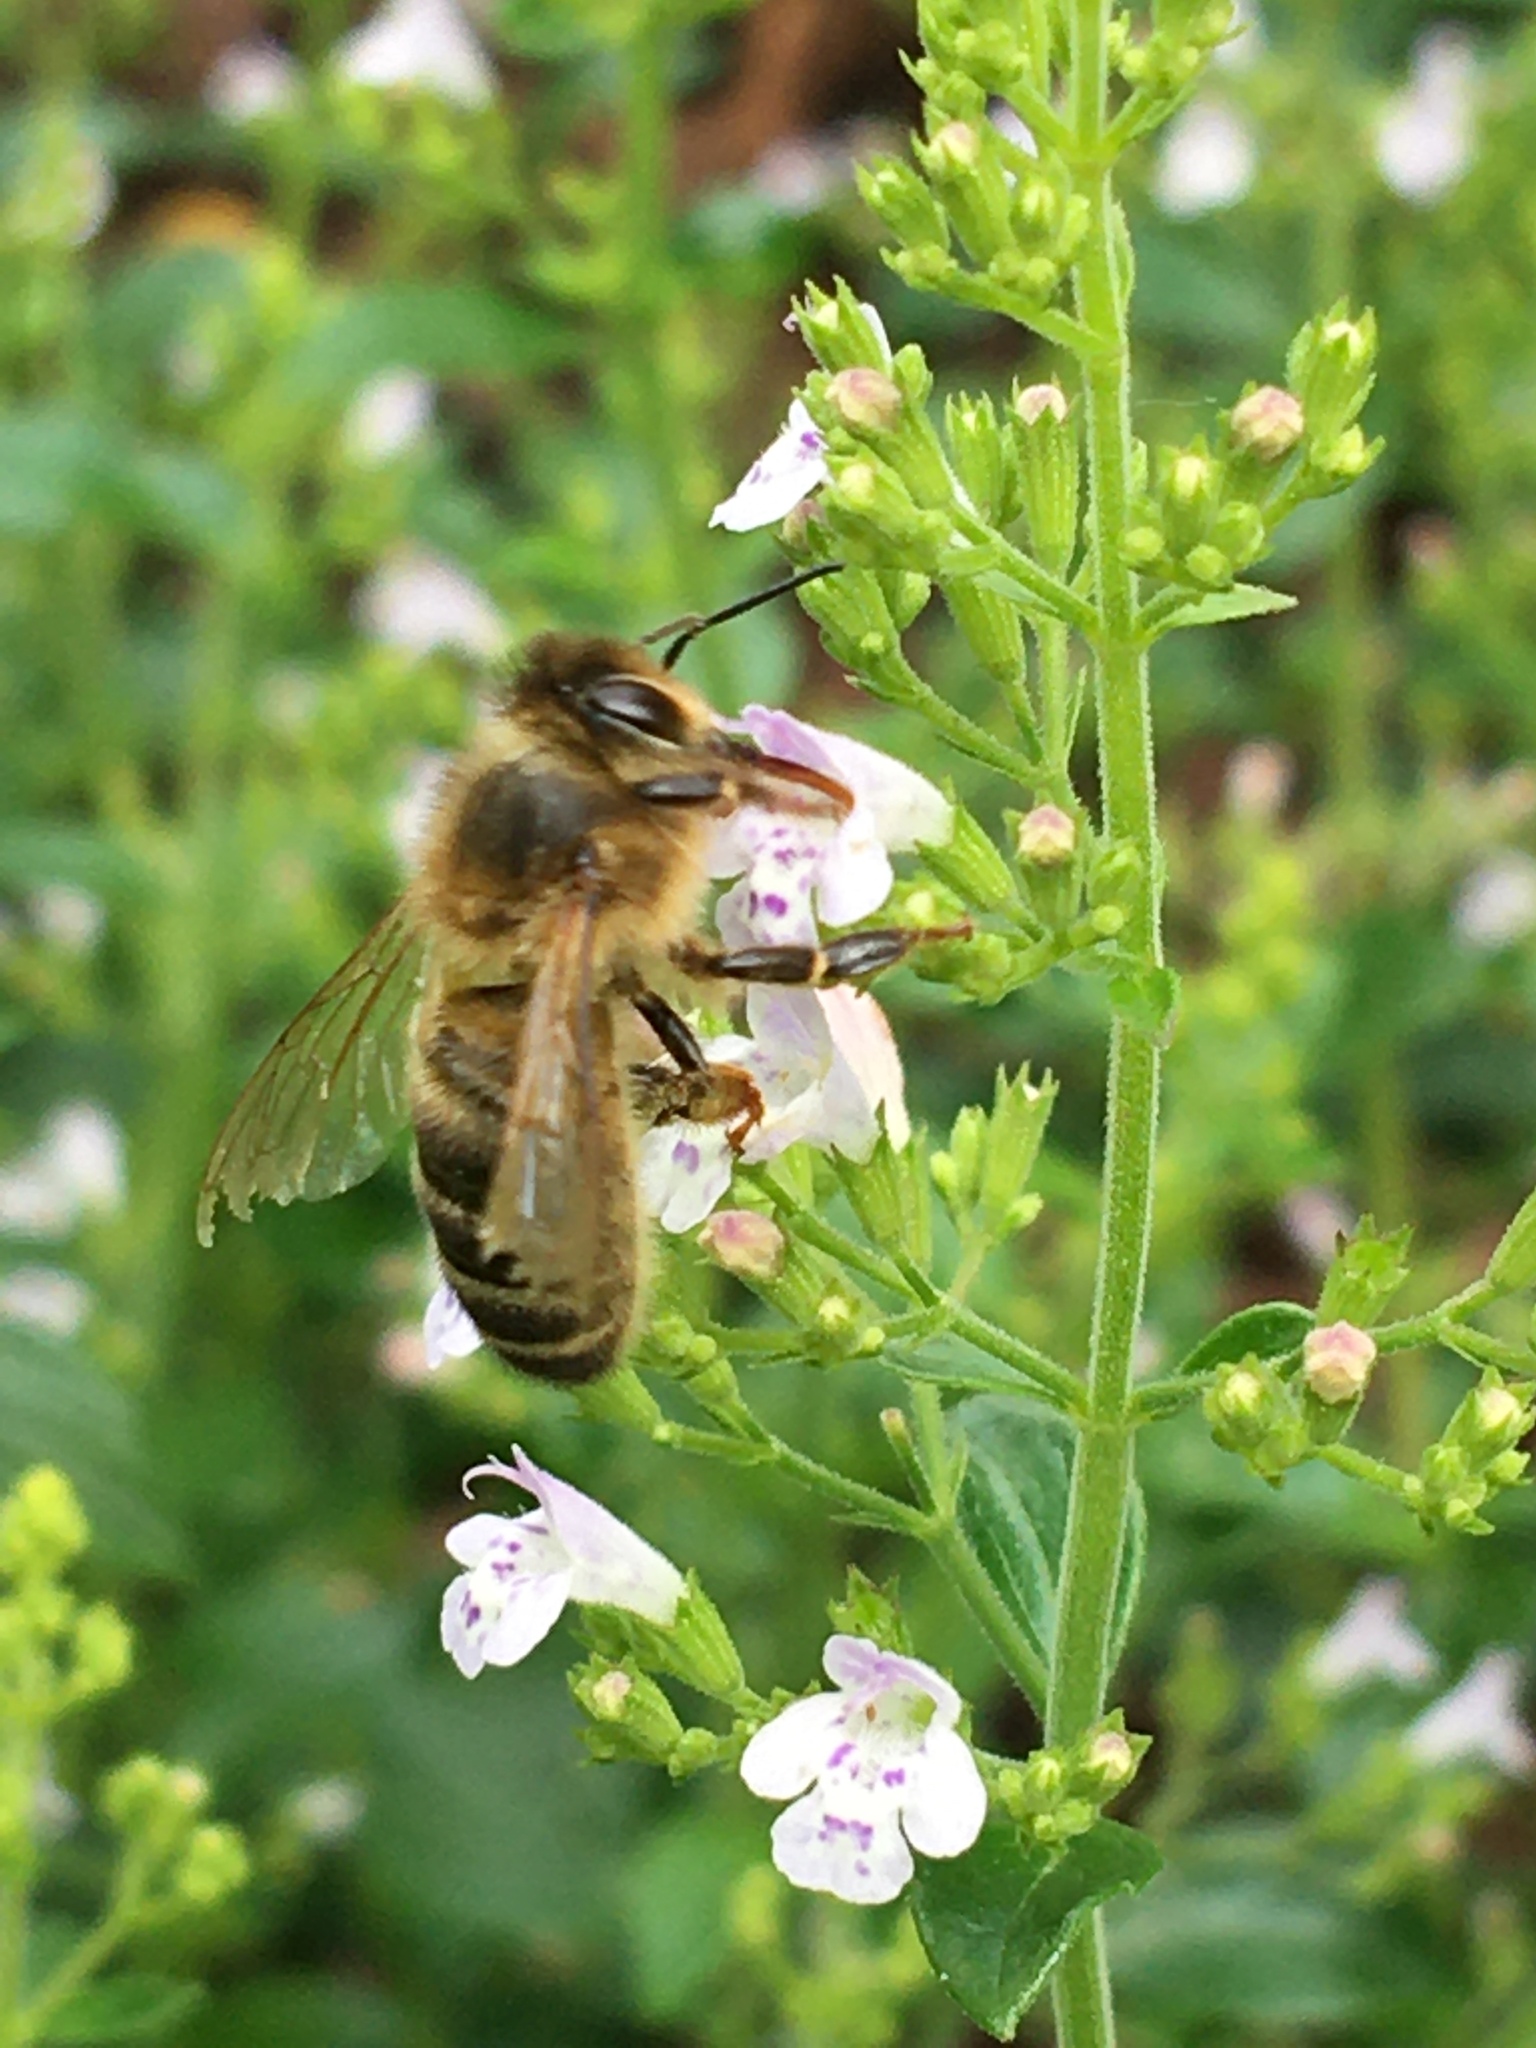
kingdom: Animalia
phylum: Arthropoda
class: Insecta
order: Hymenoptera
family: Apidae
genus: Apis
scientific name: Apis mellifera
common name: Honey bee
